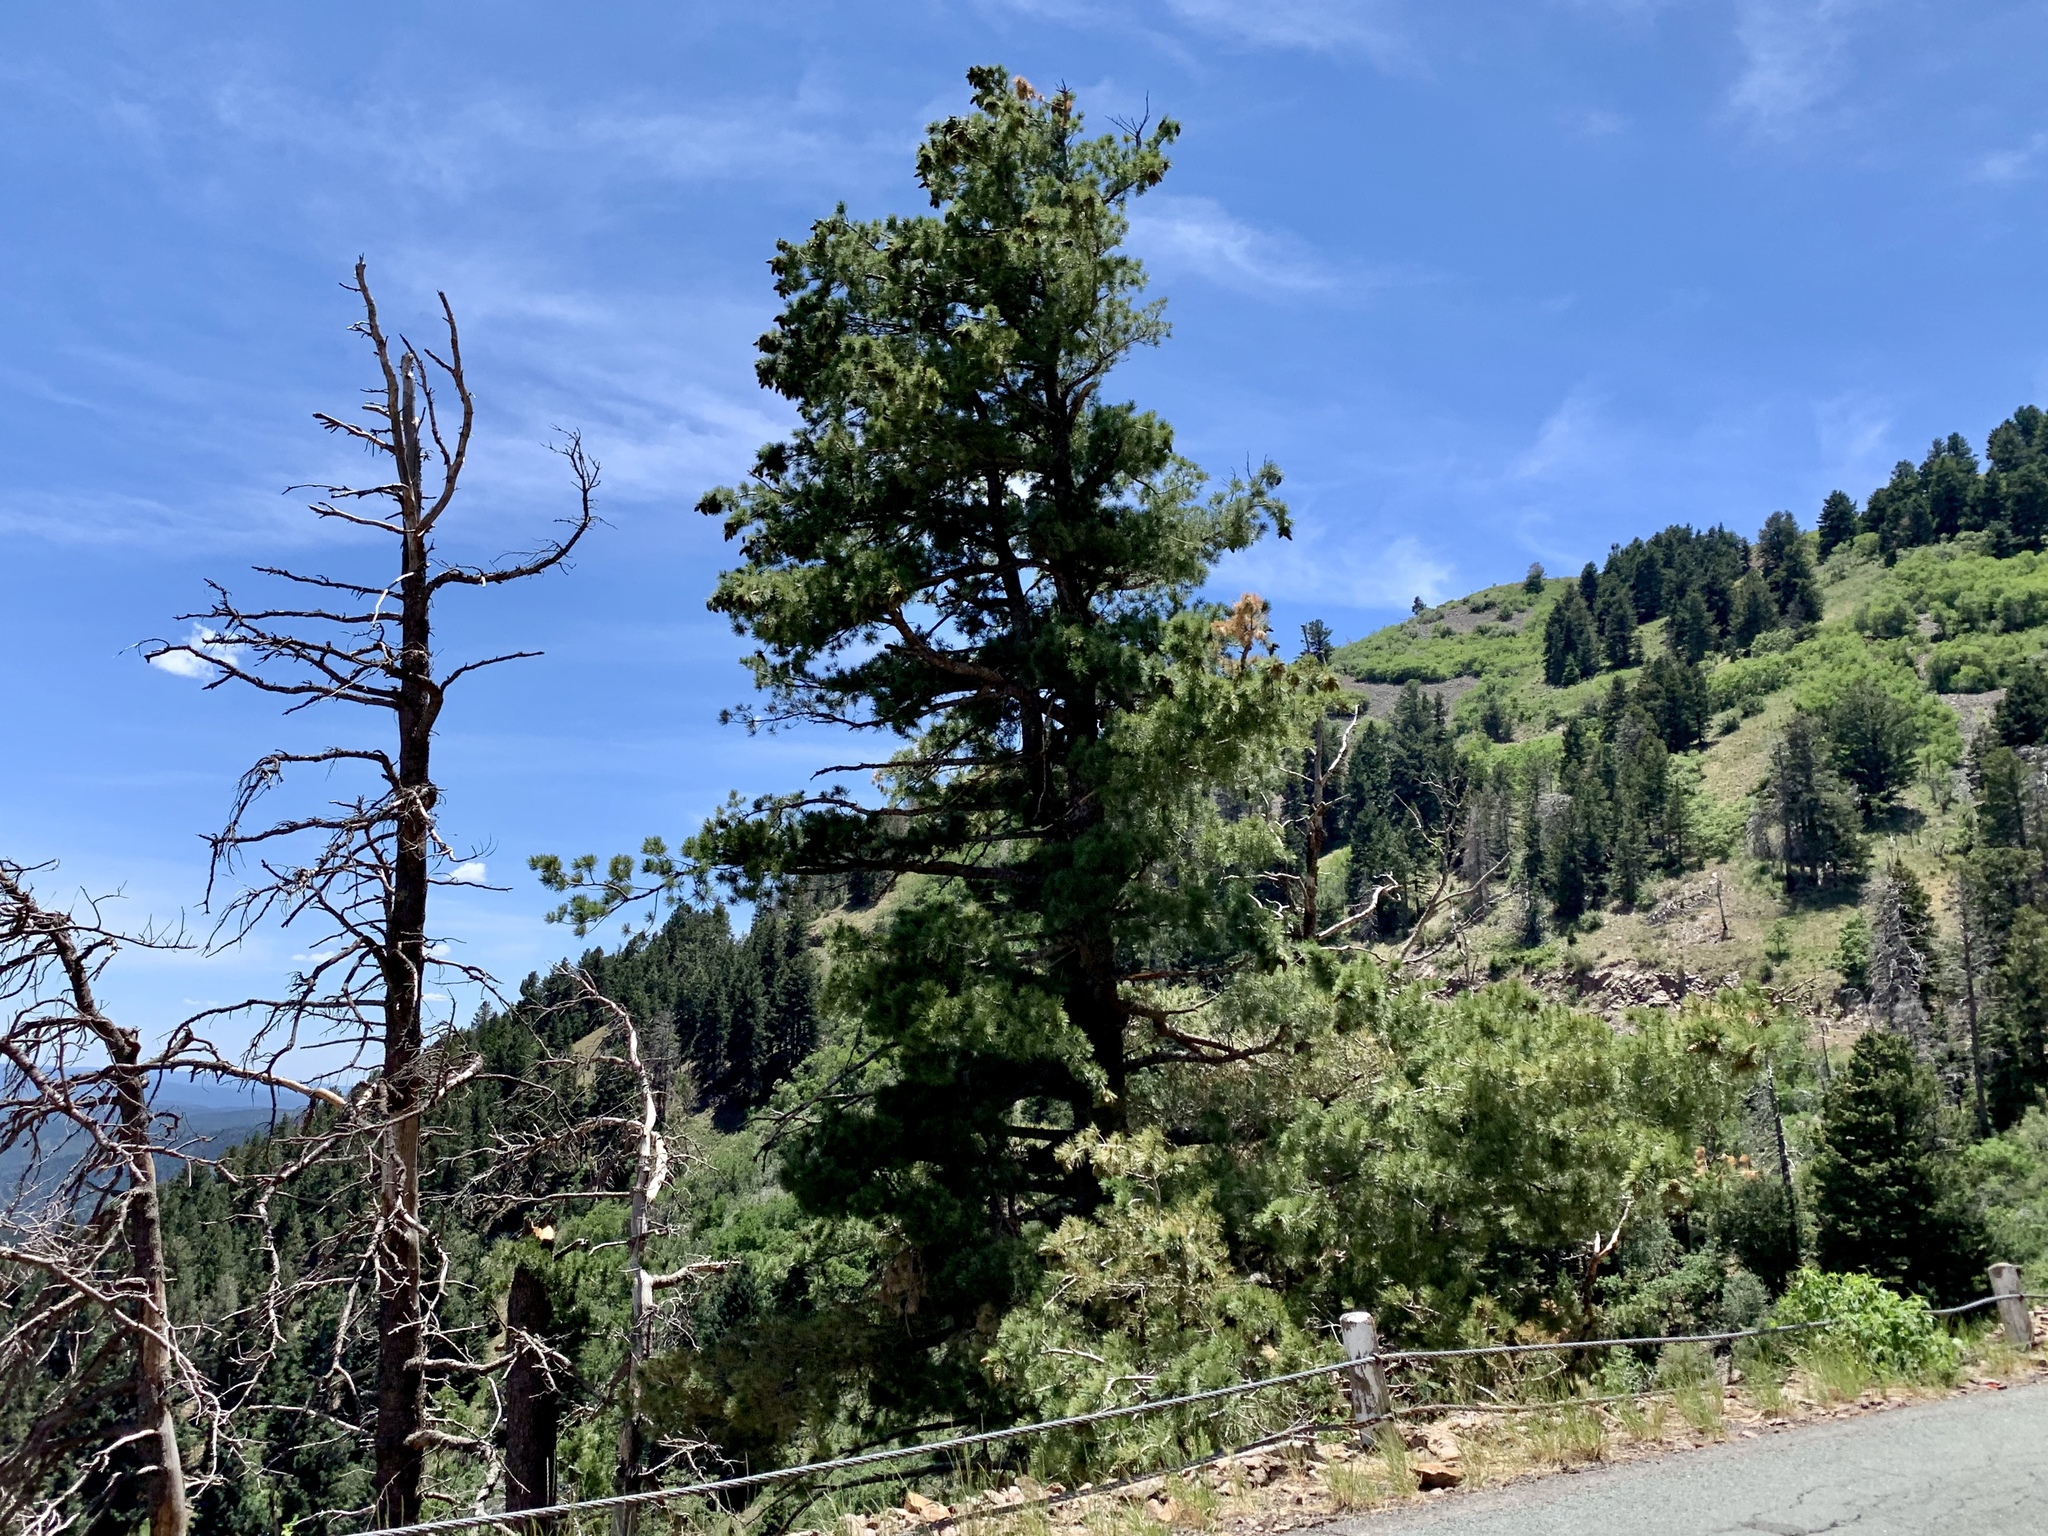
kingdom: Plantae
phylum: Tracheophyta
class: Pinopsida
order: Pinales
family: Pinaceae
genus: Pinus
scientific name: Pinus strobiformis
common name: Southwestern white pine
